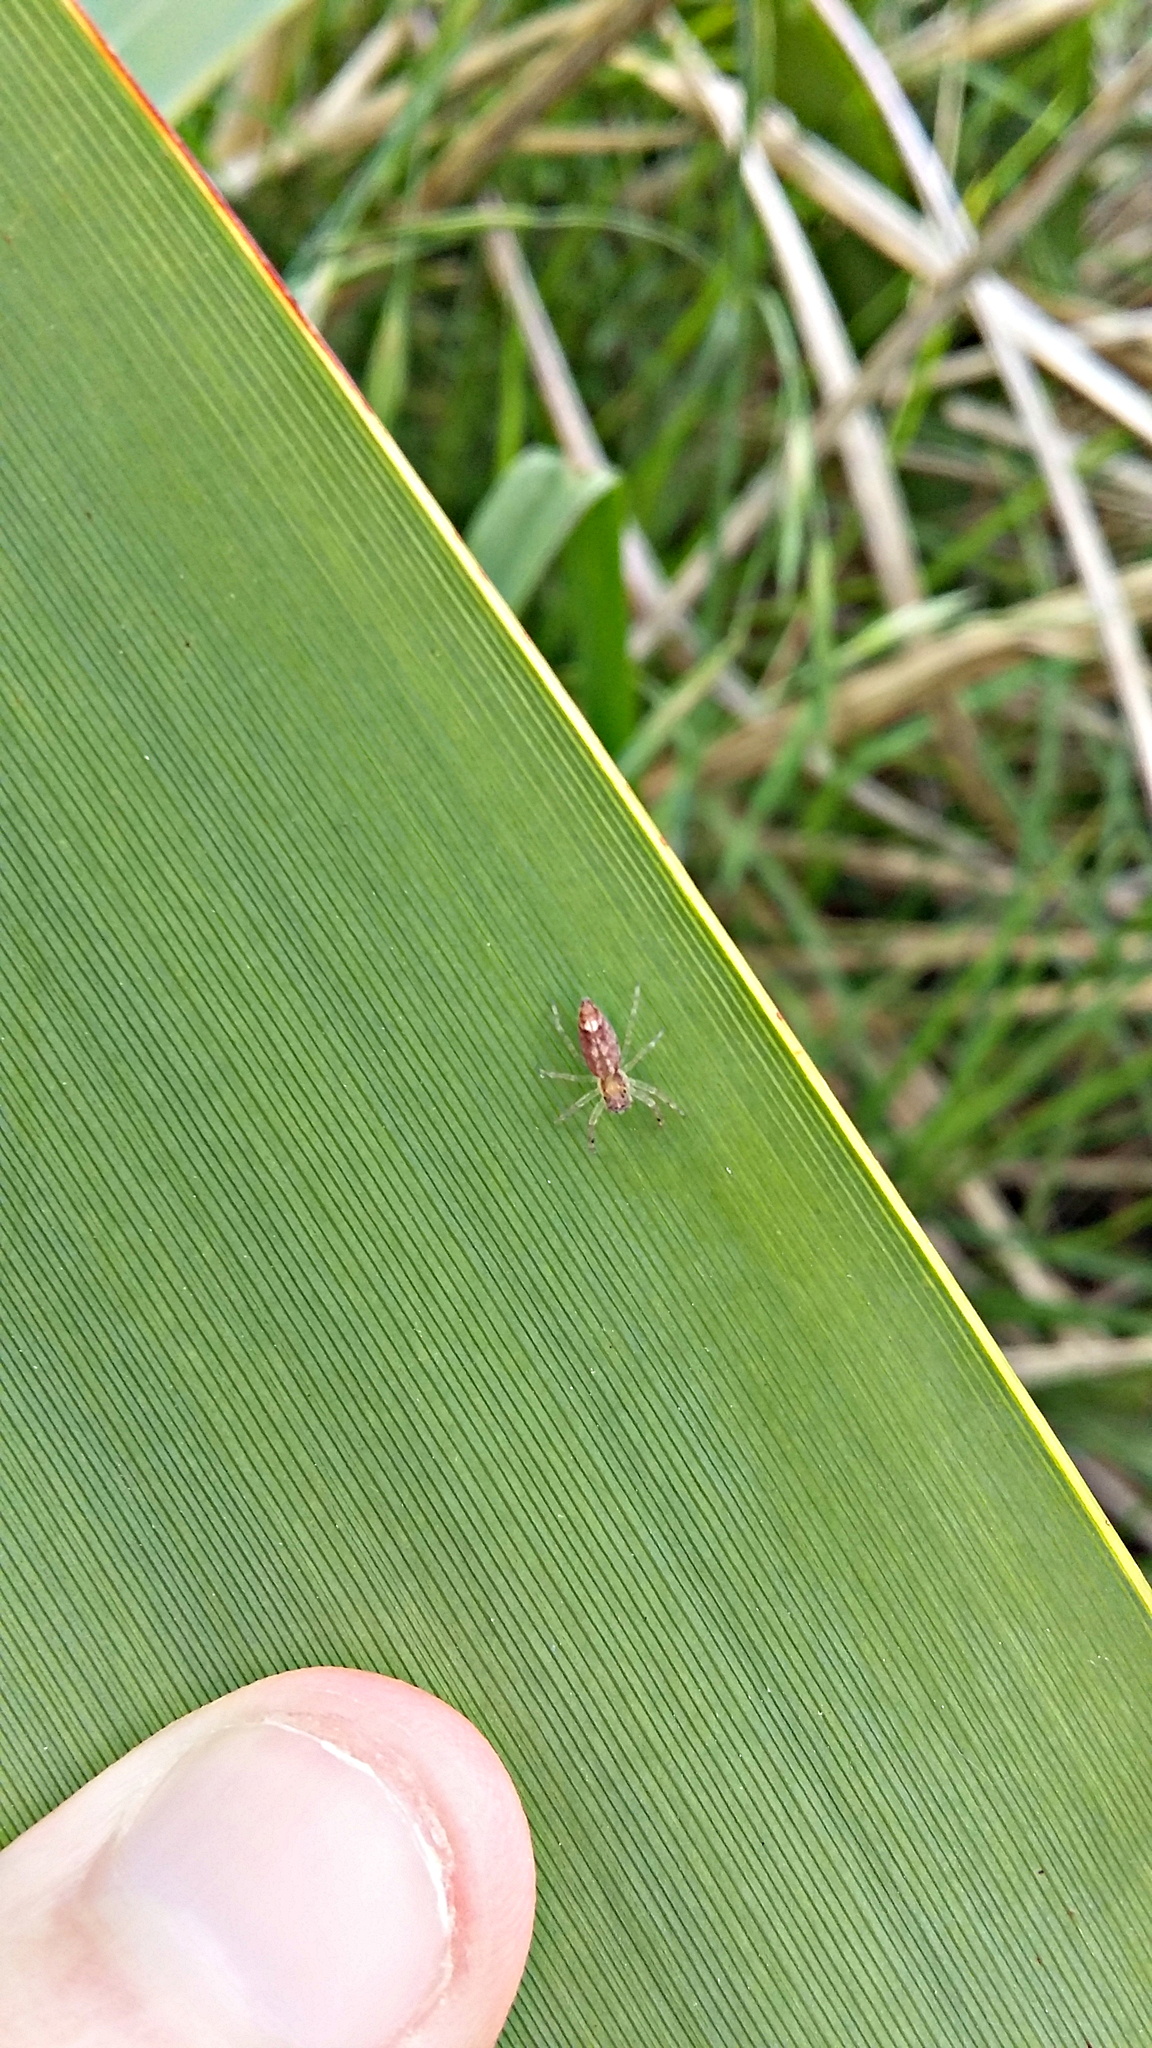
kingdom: Animalia
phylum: Arthropoda
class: Arachnida
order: Araneae
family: Salticidae
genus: Helpis
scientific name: Helpis minitabunda
